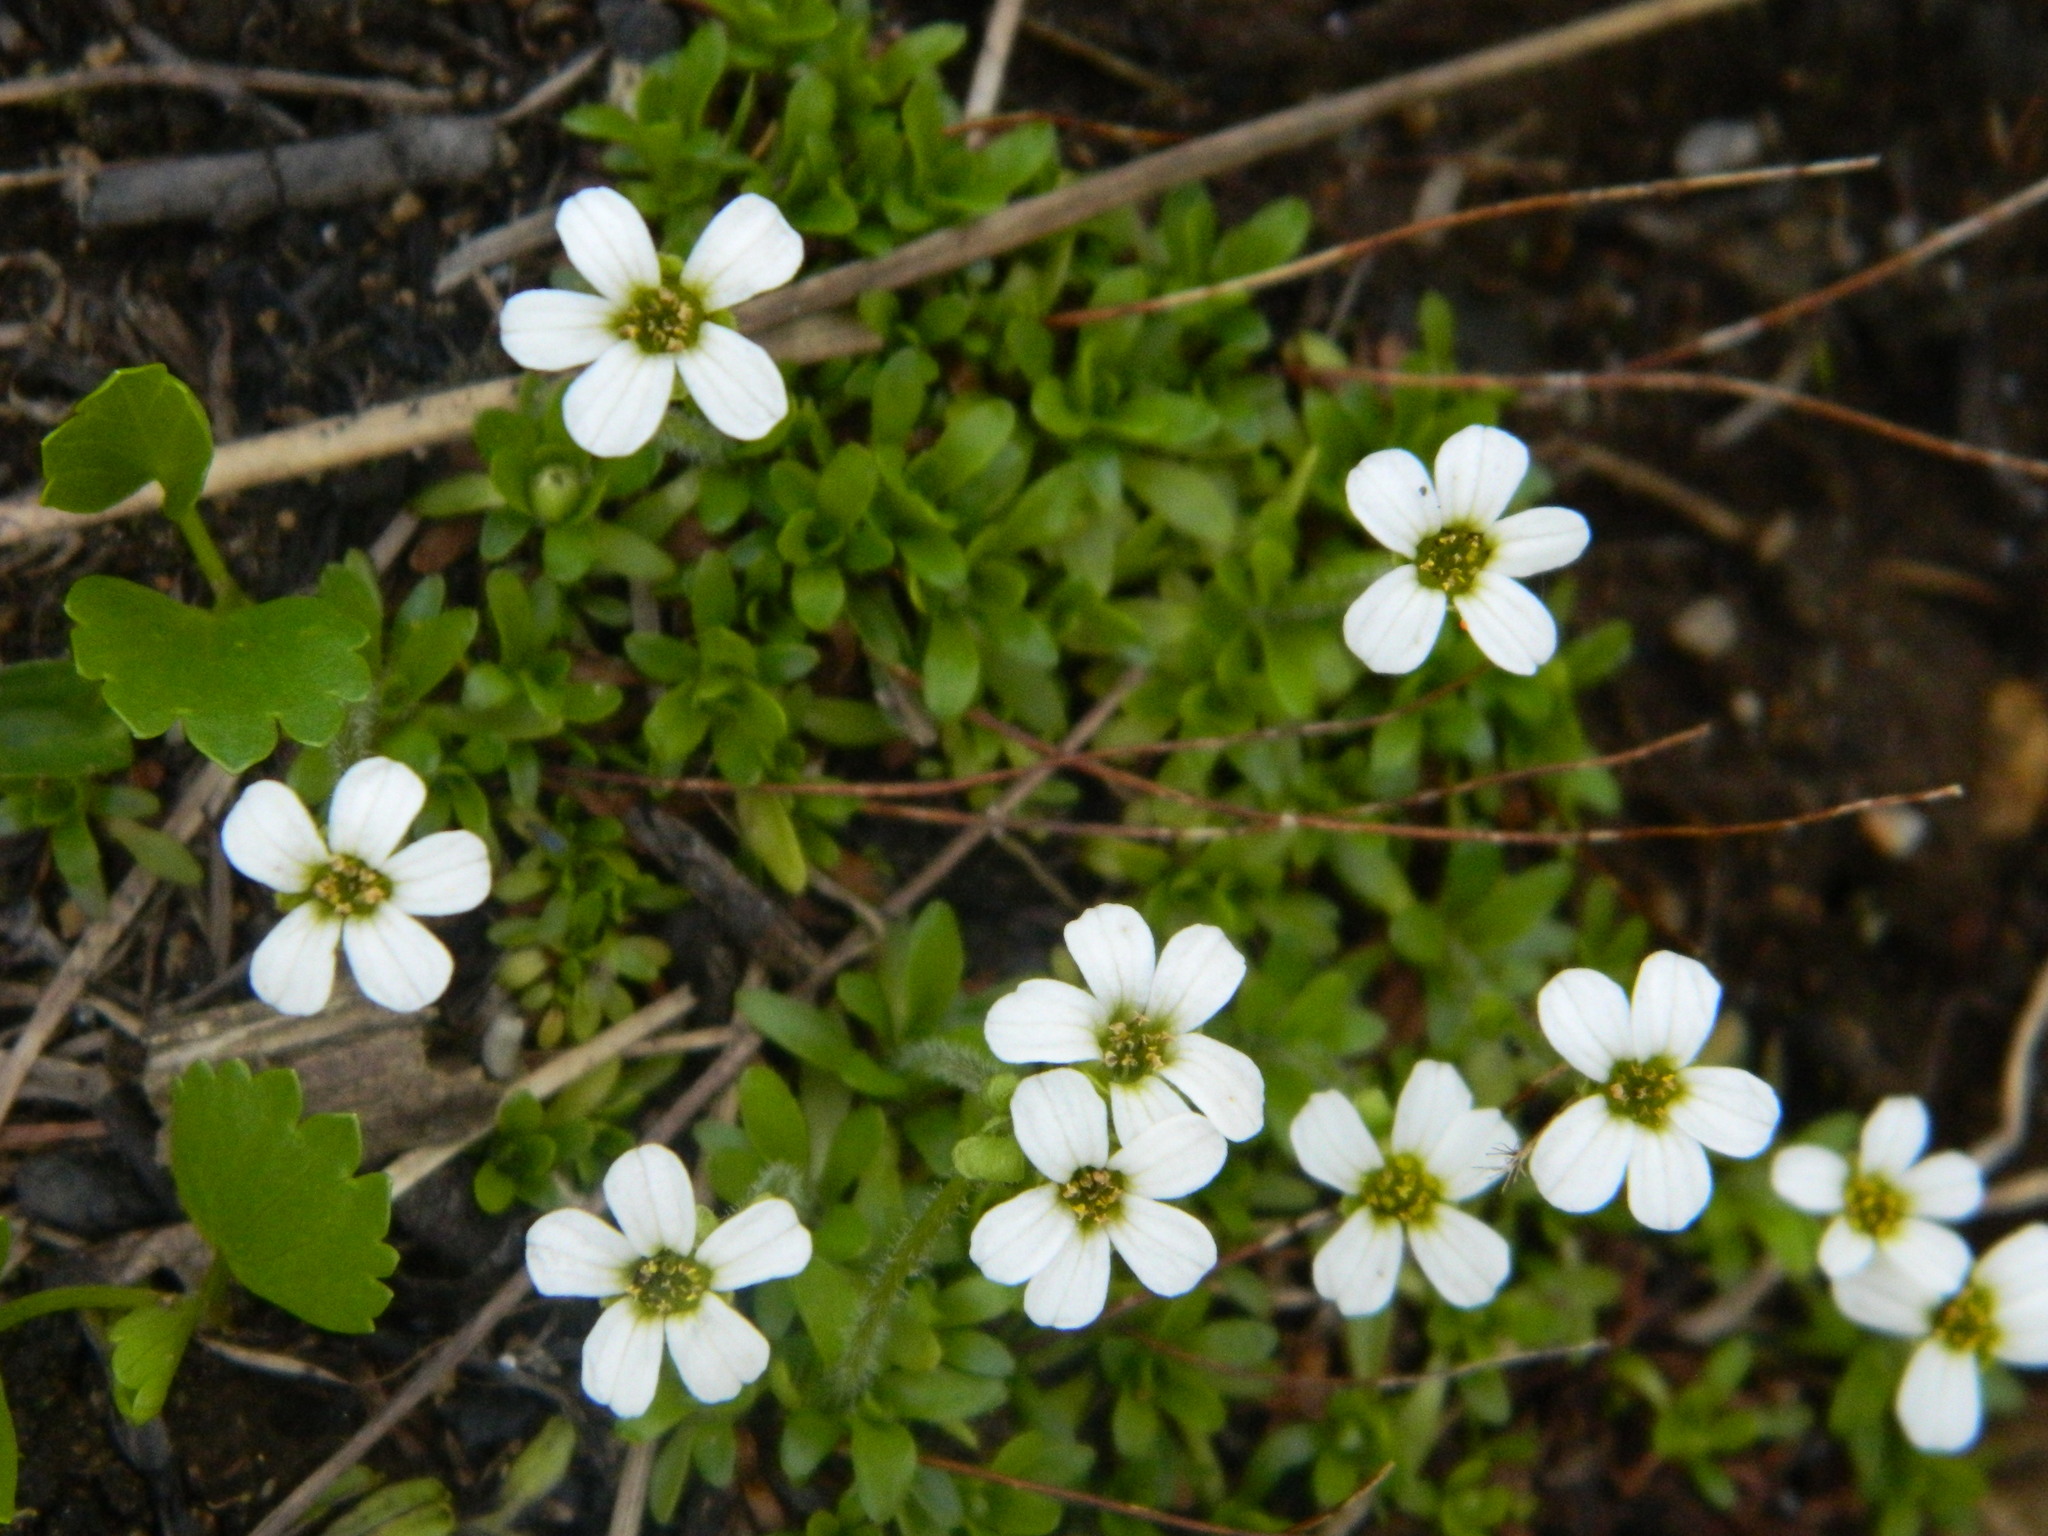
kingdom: Plantae
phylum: Tracheophyta
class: Magnoliopsida
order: Saxifragales
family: Saxifragaceae
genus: Saxifraga
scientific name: Saxifraga androsacea
